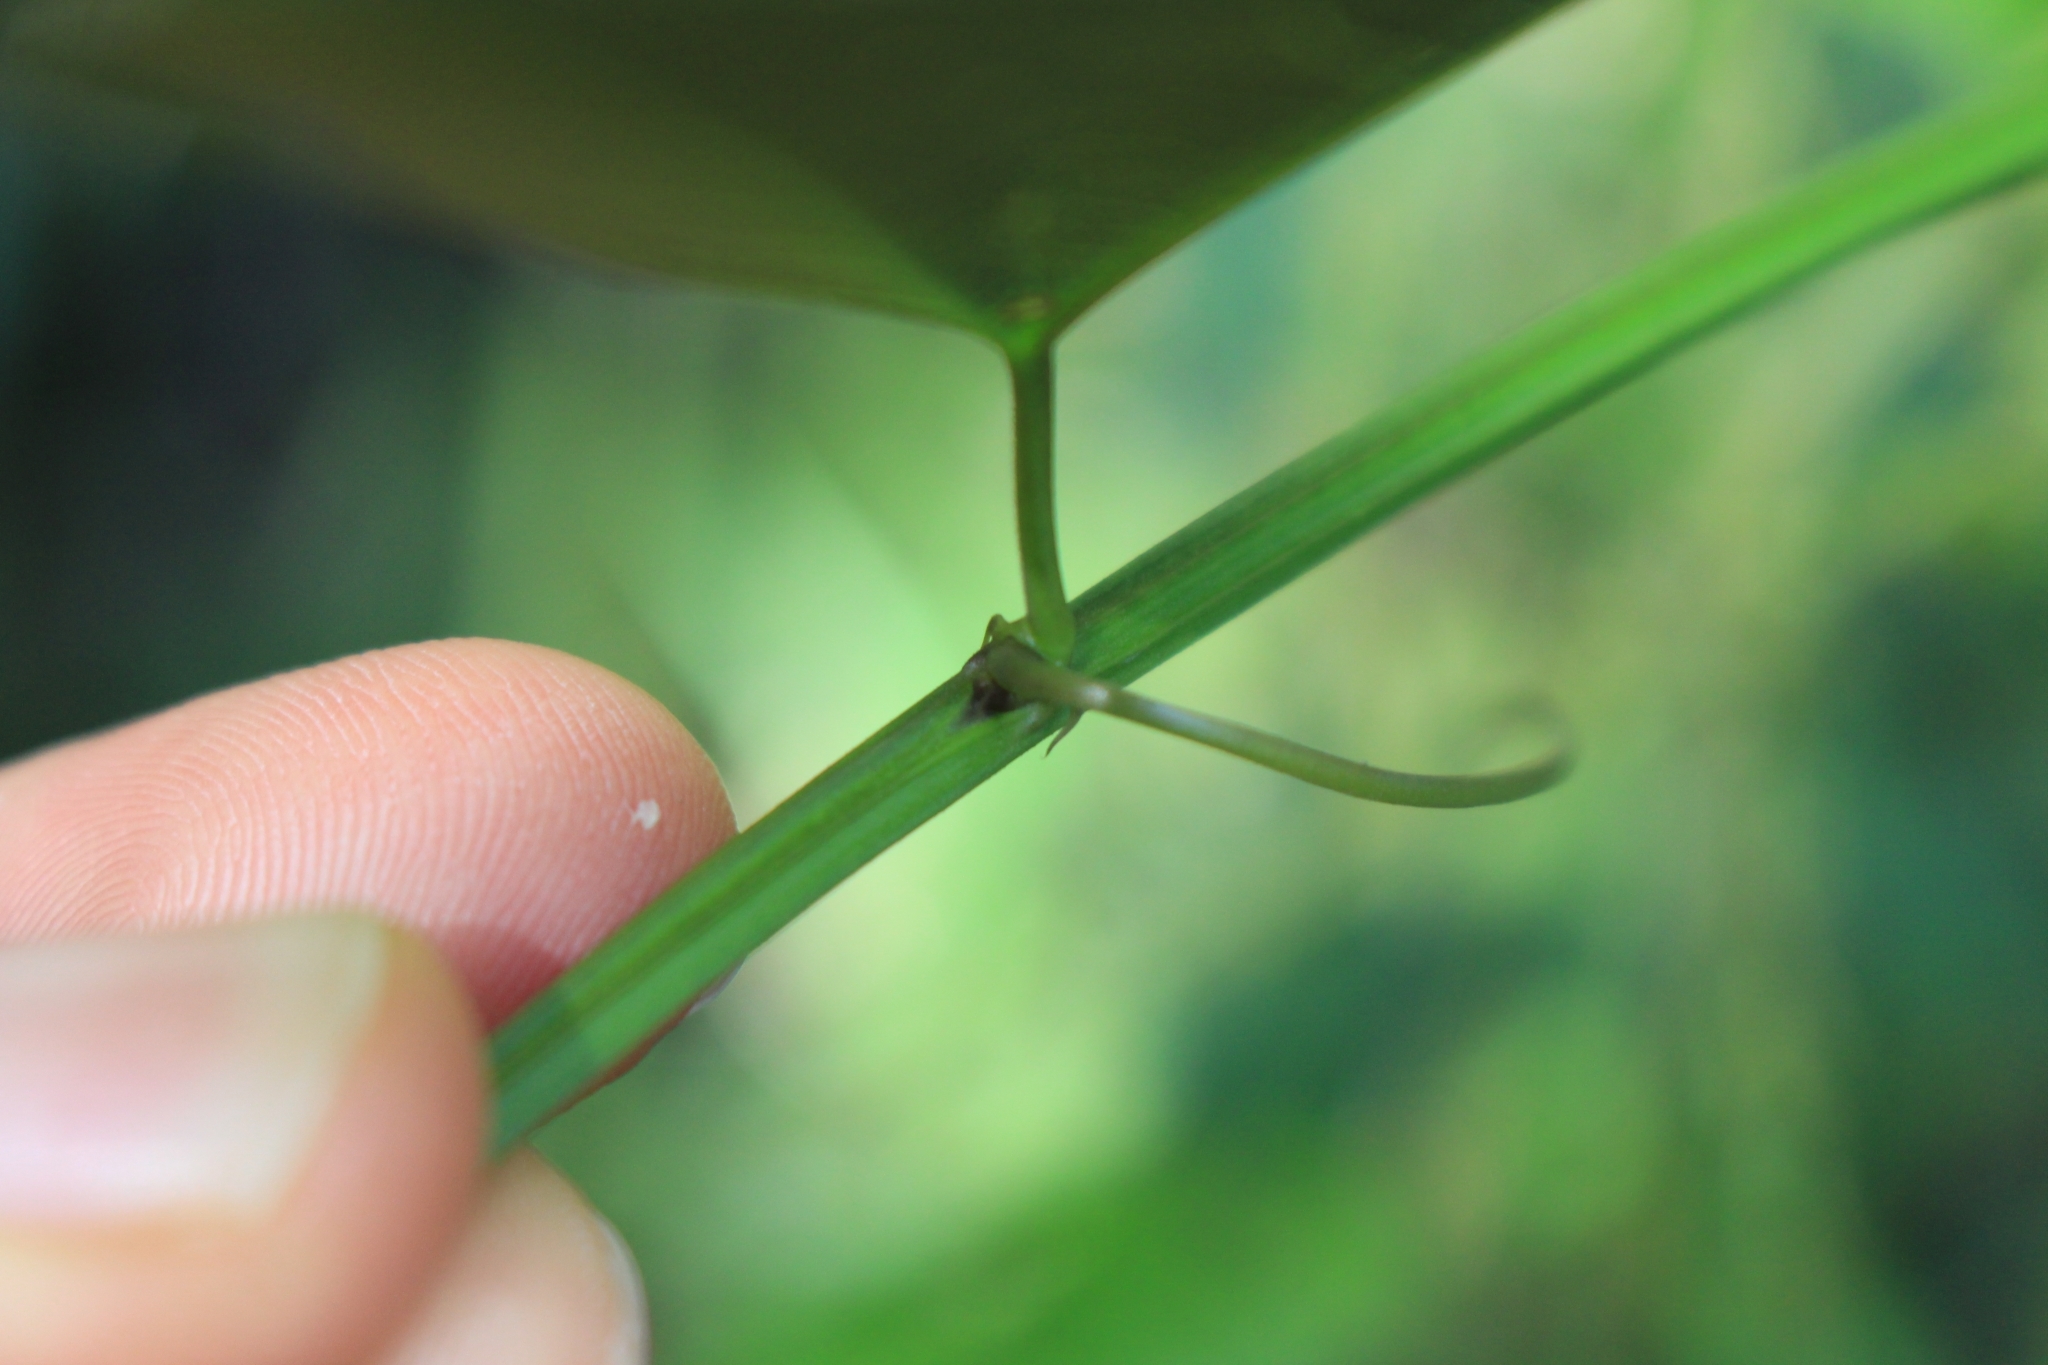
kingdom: Plantae
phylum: Tracheophyta
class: Magnoliopsida
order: Malpighiales
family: Passifloraceae
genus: Passiflora
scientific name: Passiflora biflora
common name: Twoflower passionflower
